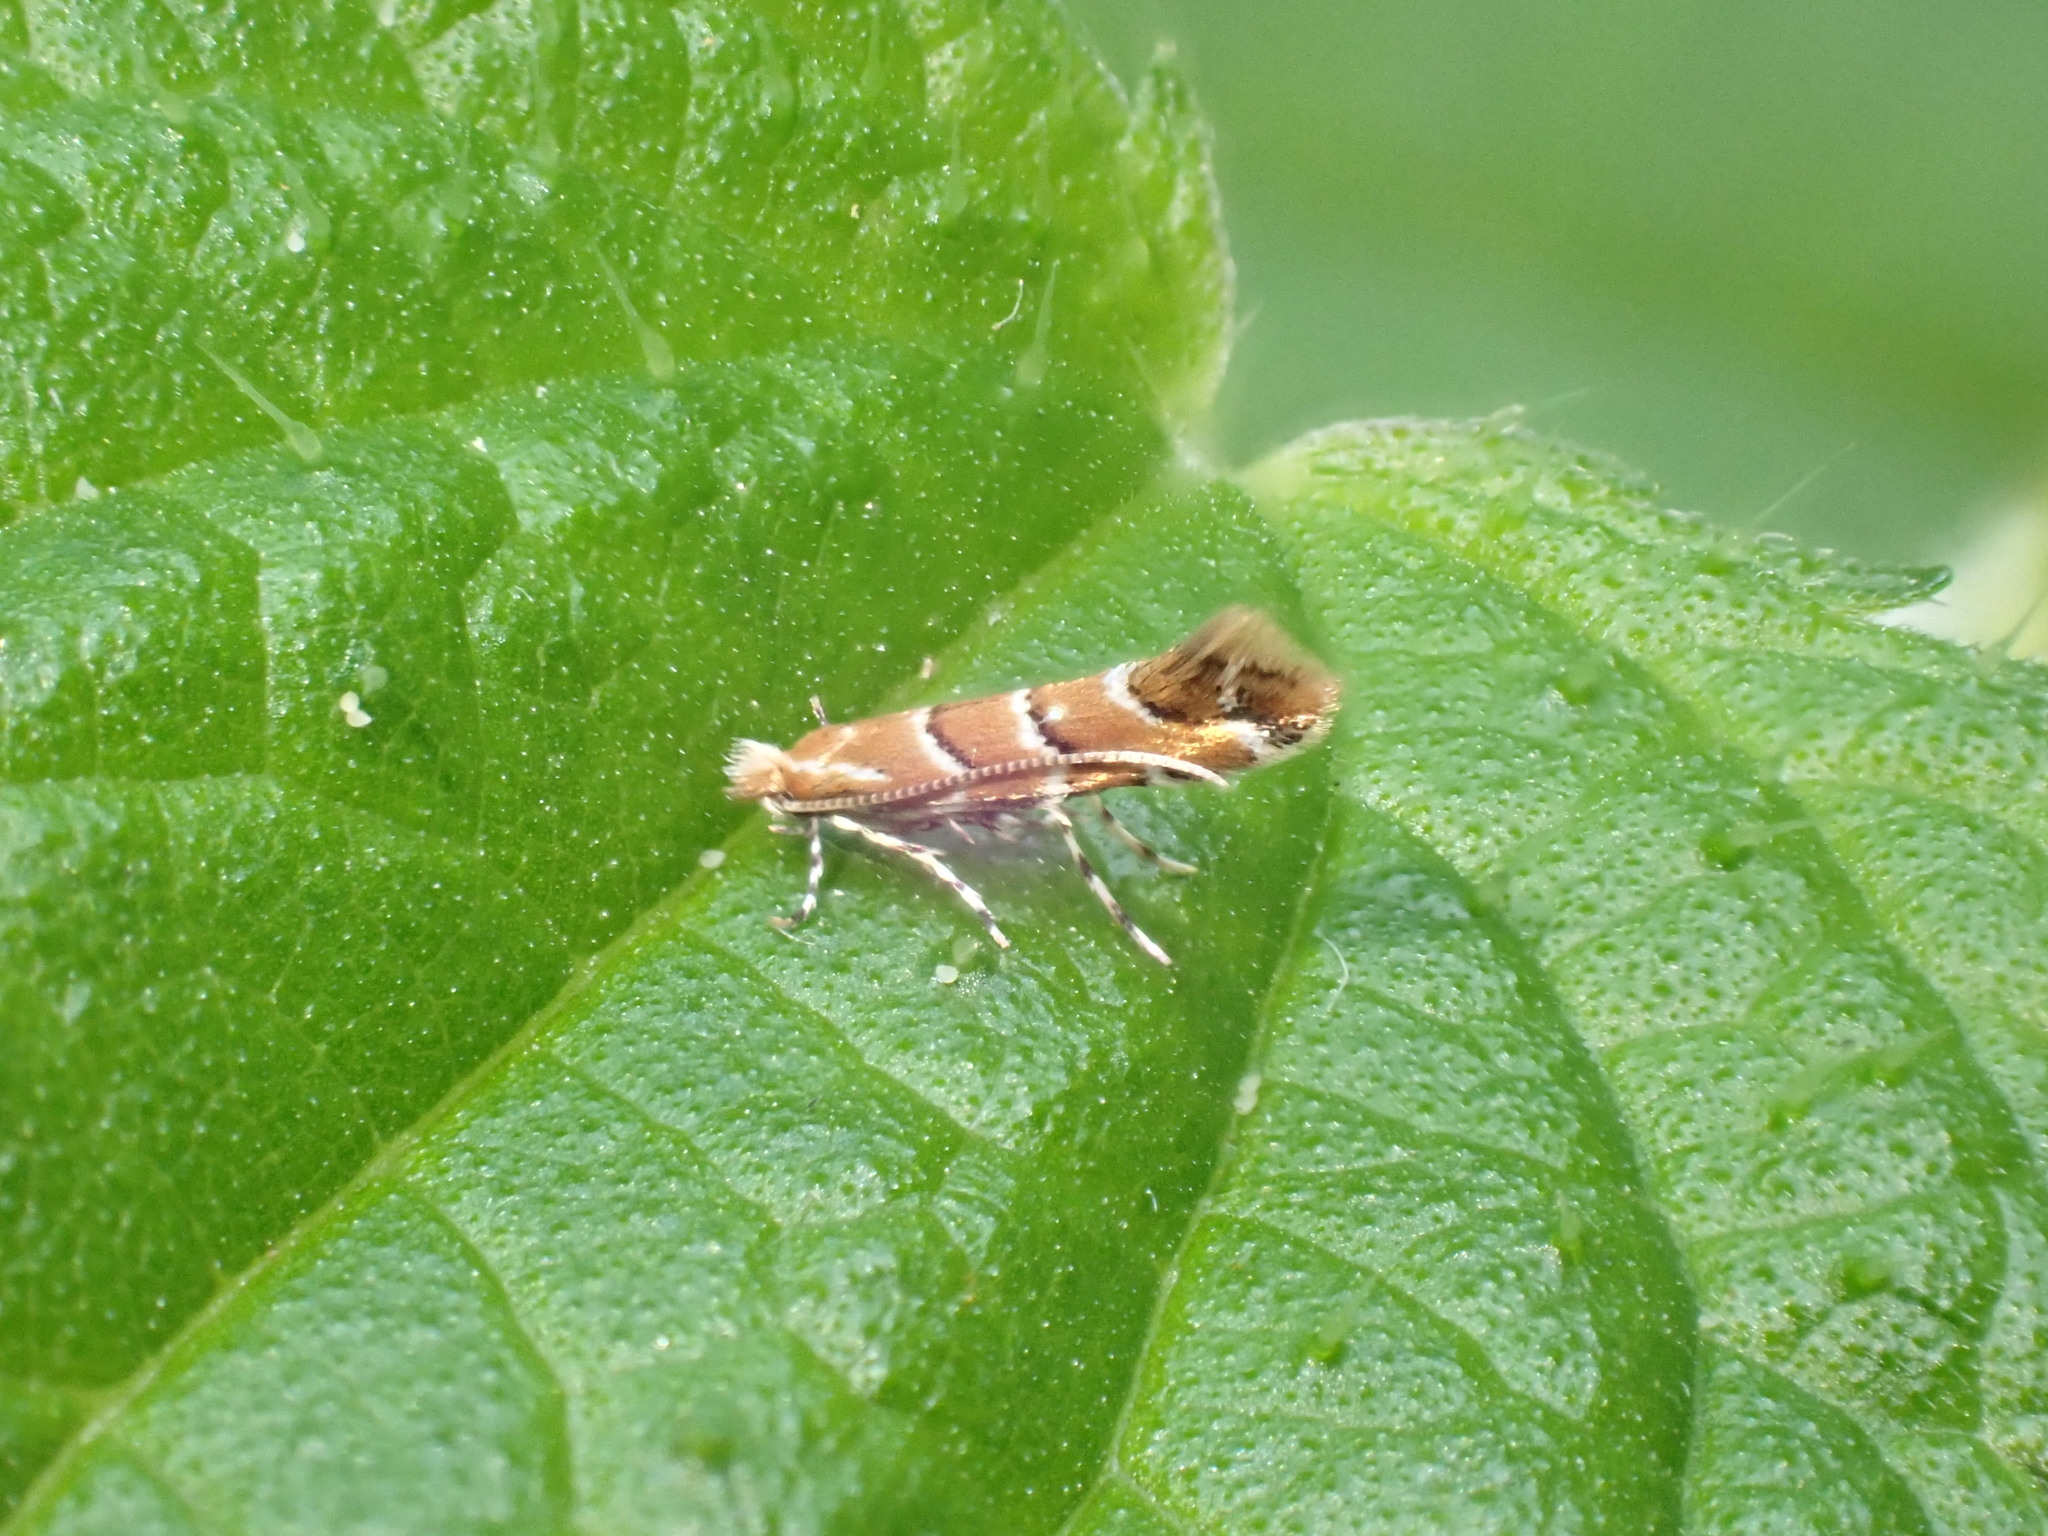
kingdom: Animalia
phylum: Arthropoda
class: Insecta
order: Lepidoptera
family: Gracillariidae
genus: Cameraria
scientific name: Cameraria ohridella
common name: Horse-chestnut leaf-miner
